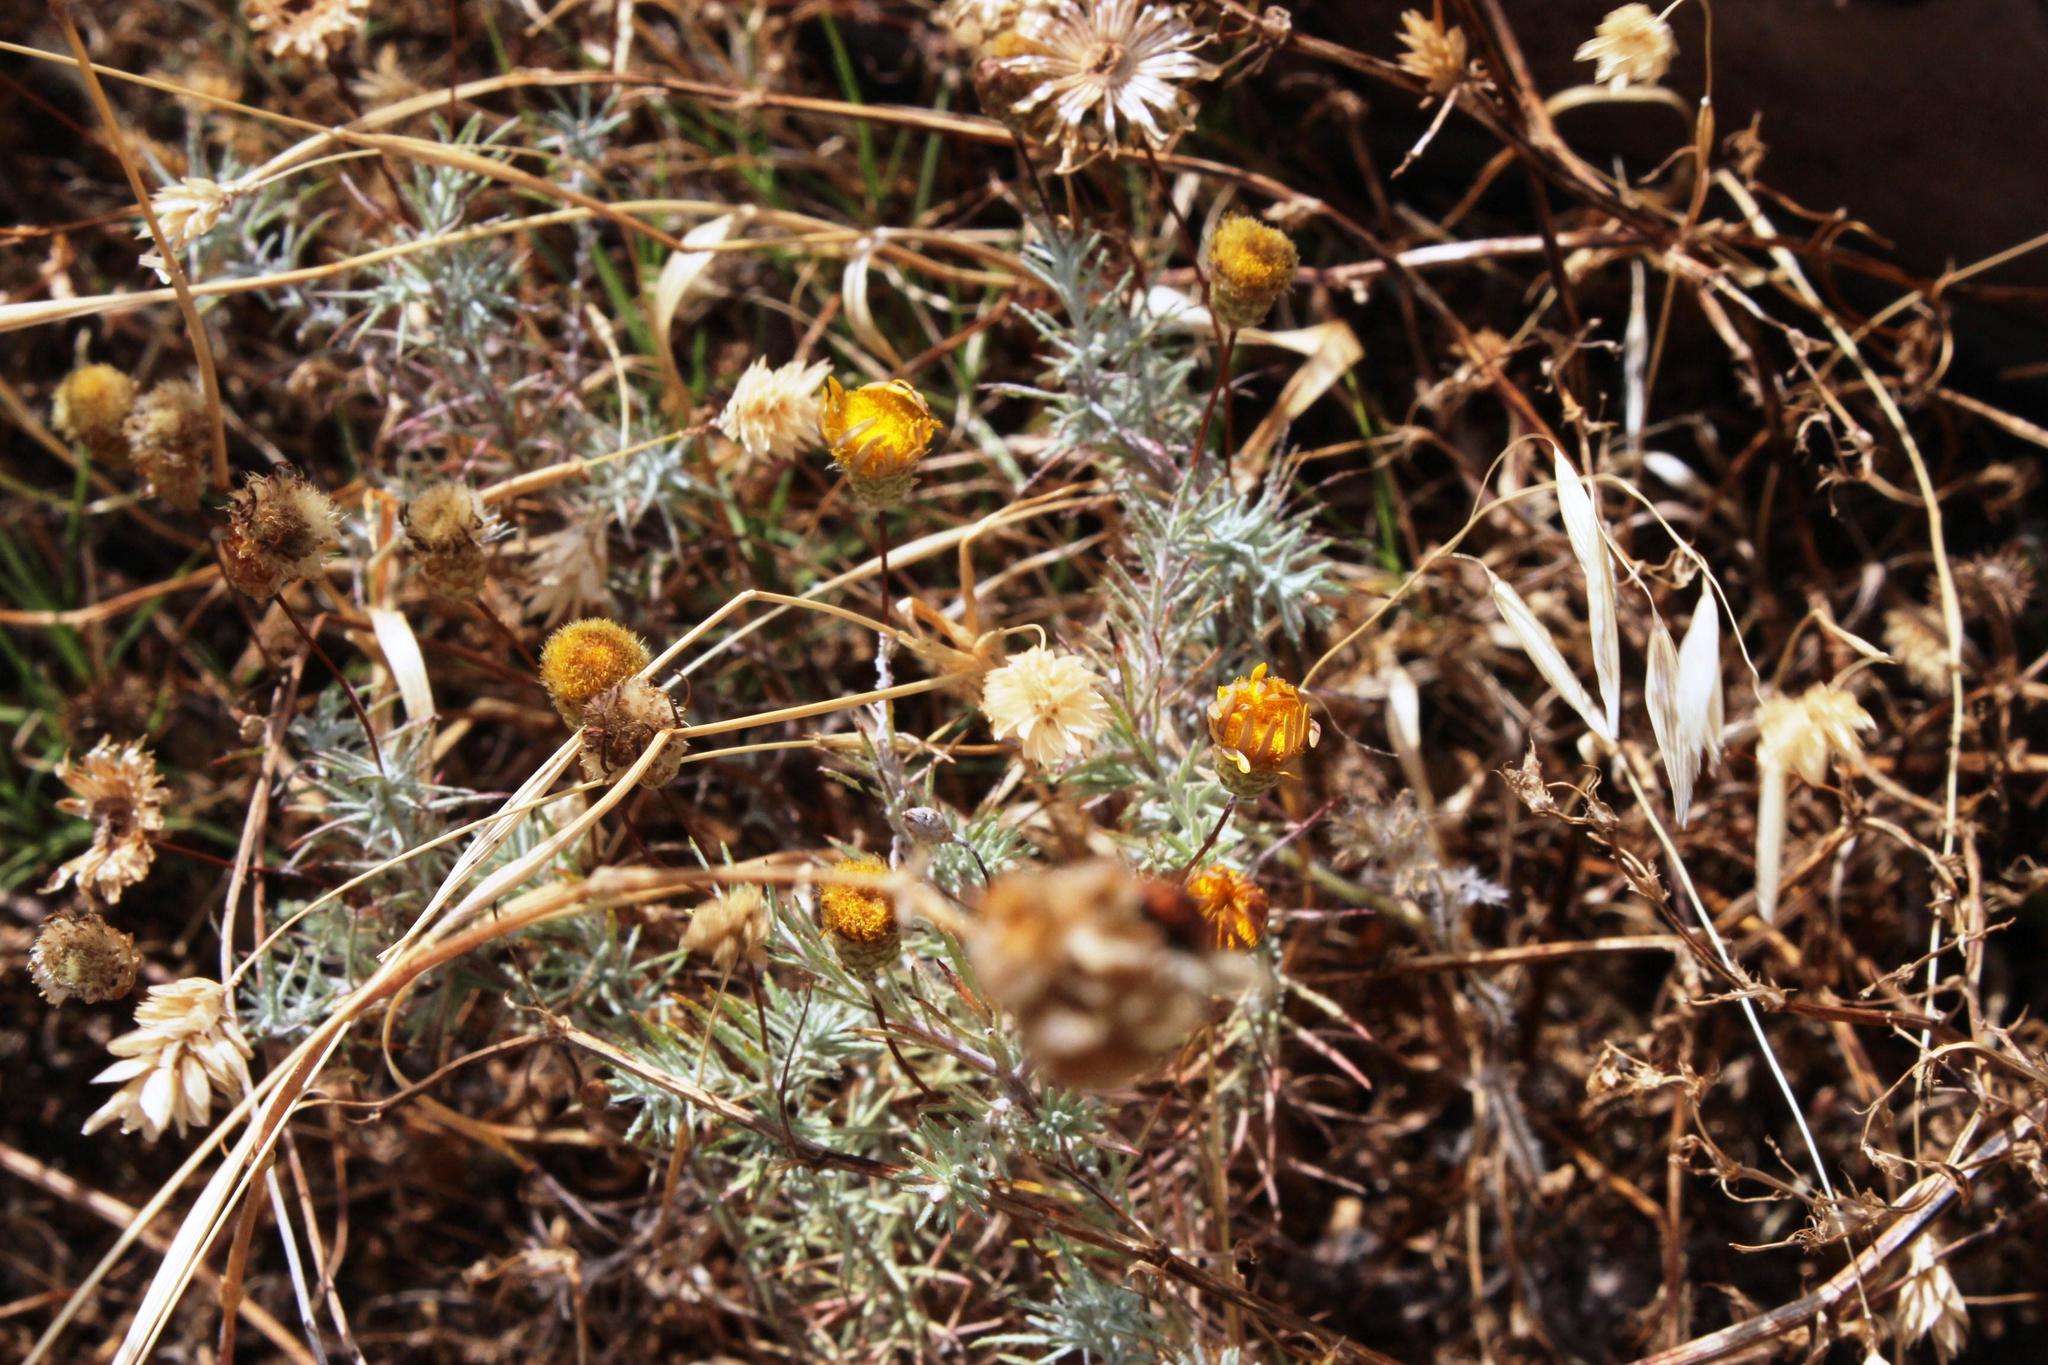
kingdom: Plantae
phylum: Tracheophyta
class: Magnoliopsida
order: Asterales
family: Asteraceae
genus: Leysera
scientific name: Leysera gnaphalodes
